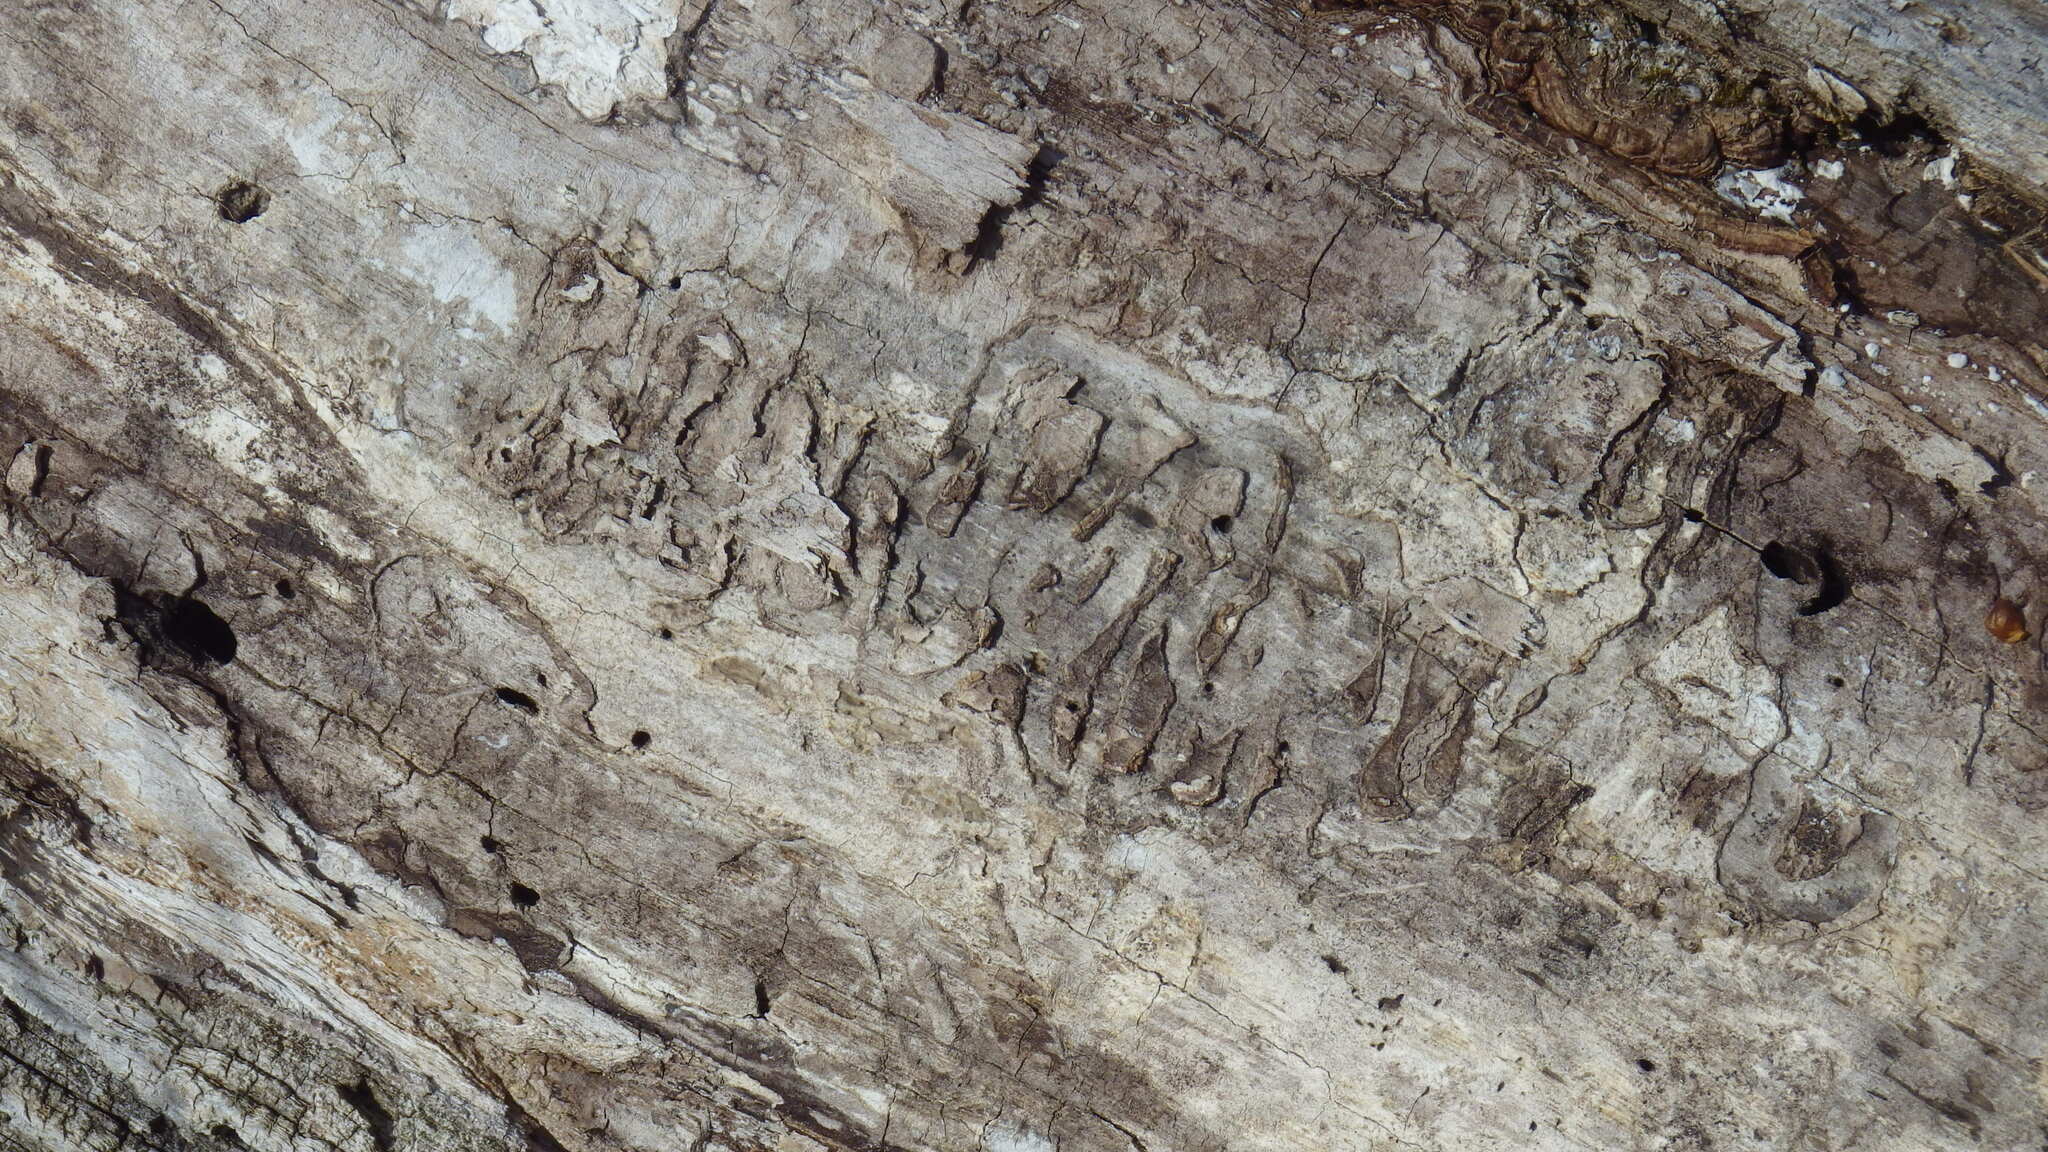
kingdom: Animalia
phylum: Arthropoda
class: Insecta
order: Coleoptera
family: Buprestidae
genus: Agrilus
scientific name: Agrilus planipennis
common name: Emerald ash borer
